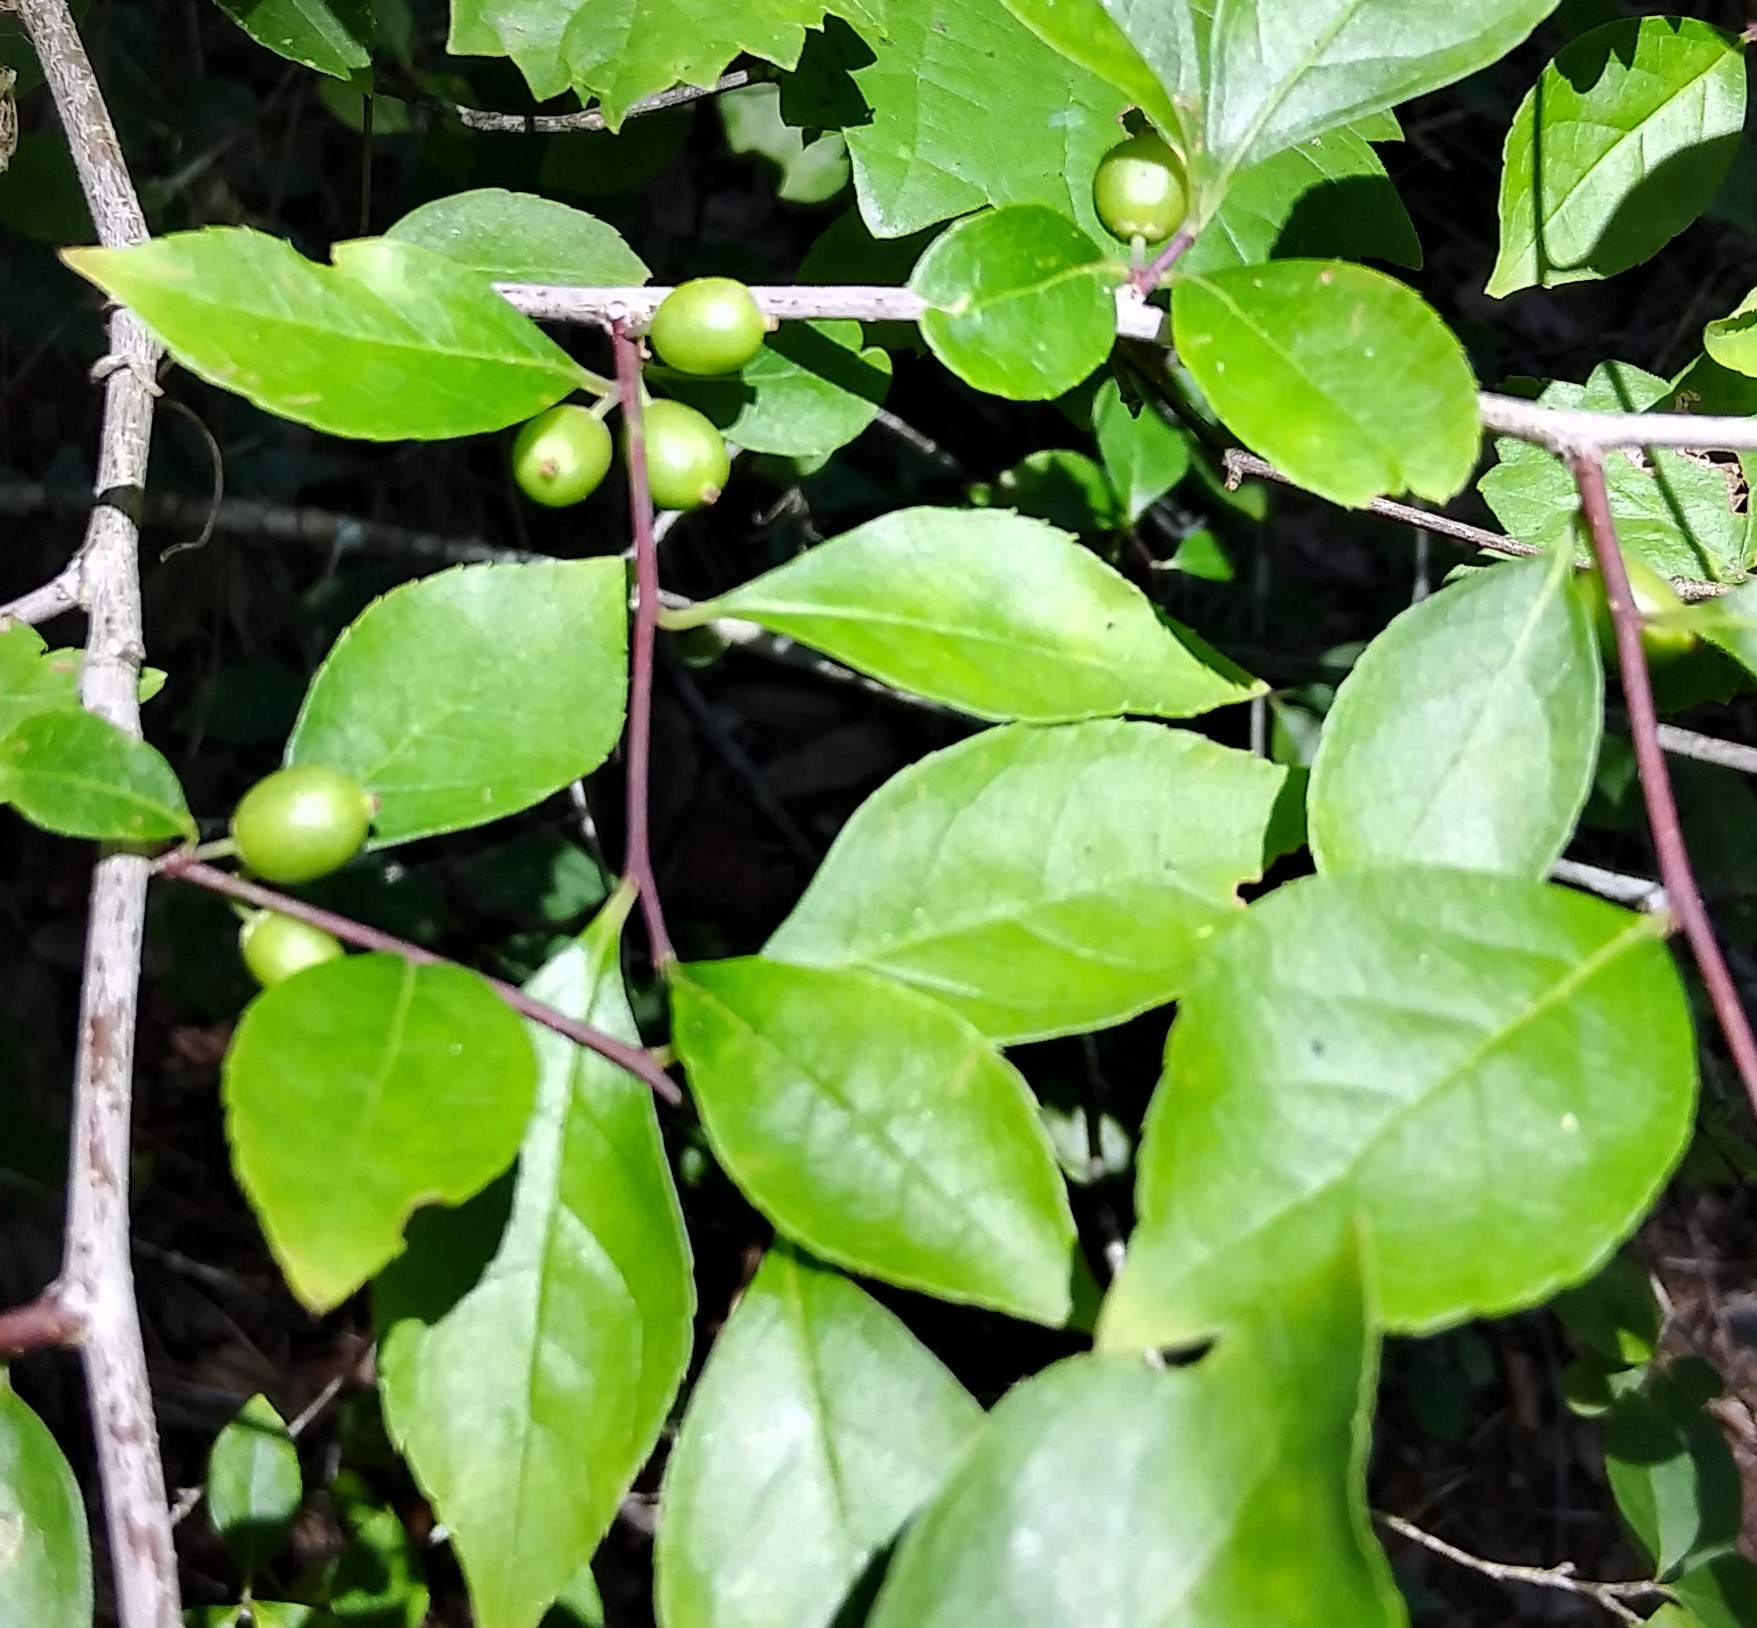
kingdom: Plantae
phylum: Tracheophyta
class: Magnoliopsida
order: Aquifoliales
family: Aquifoliaceae
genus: Ilex
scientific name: Ilex ambigua
